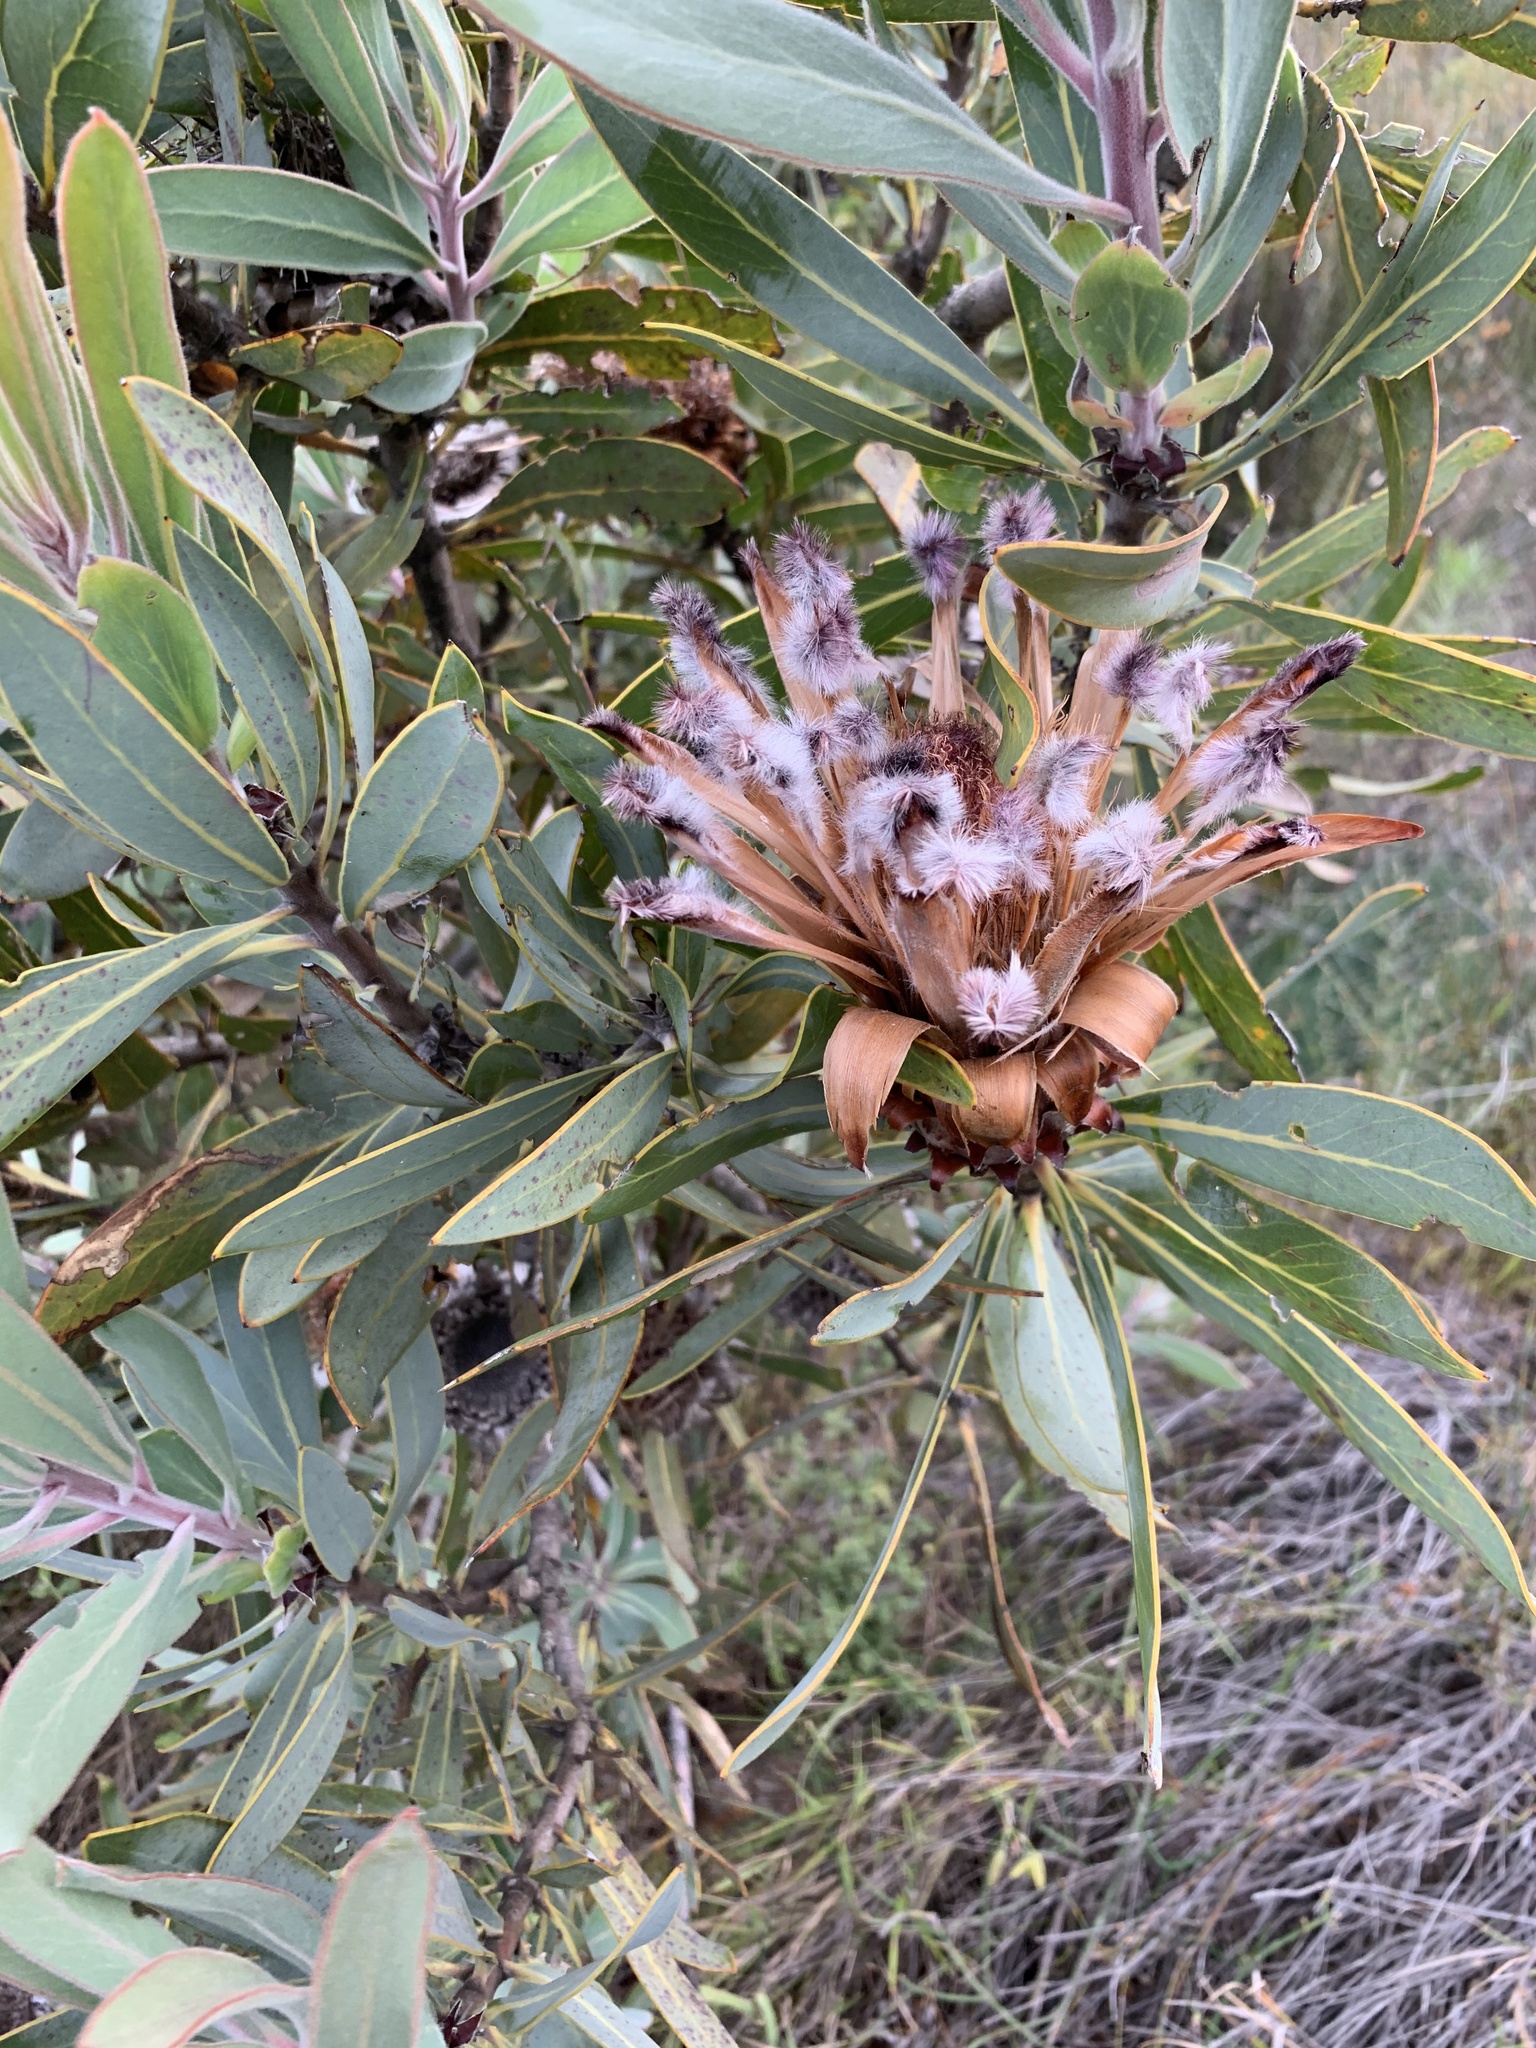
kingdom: Plantae
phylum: Tracheophyta
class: Magnoliopsida
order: Proteales
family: Proteaceae
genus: Protea
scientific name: Protea laurifolia
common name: Grey-leaf sugarbsh
